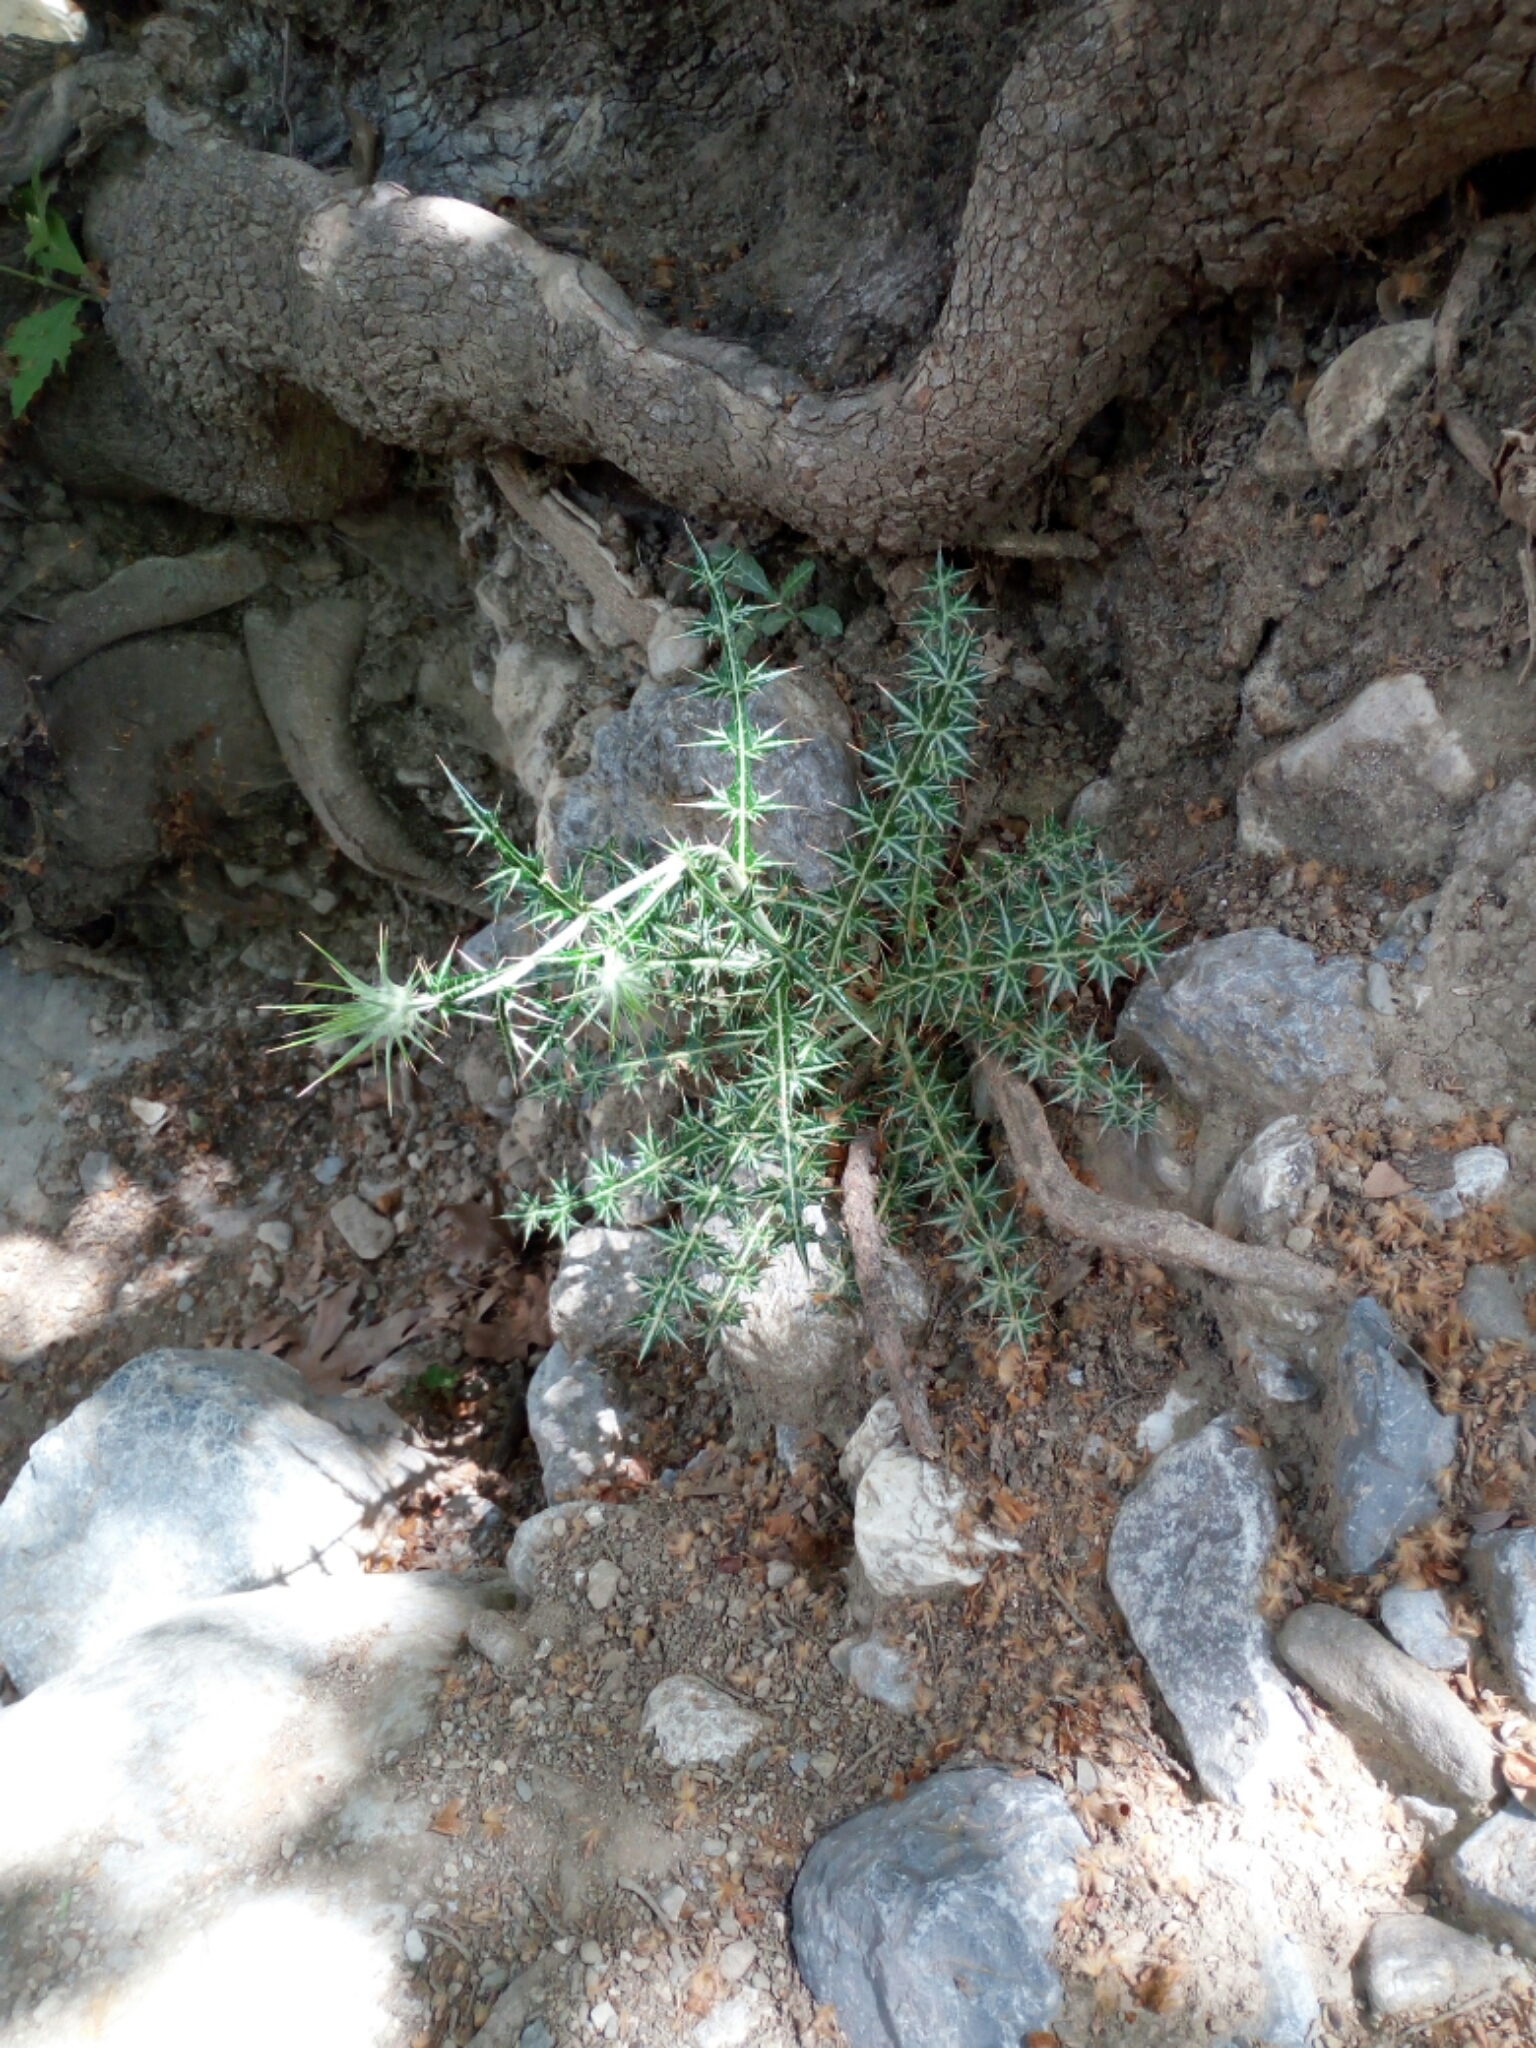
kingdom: Plantae
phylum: Tracheophyta
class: Magnoliopsida
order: Asterales
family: Asteraceae
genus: Lamyropsis
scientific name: Lamyropsis cynaroides
